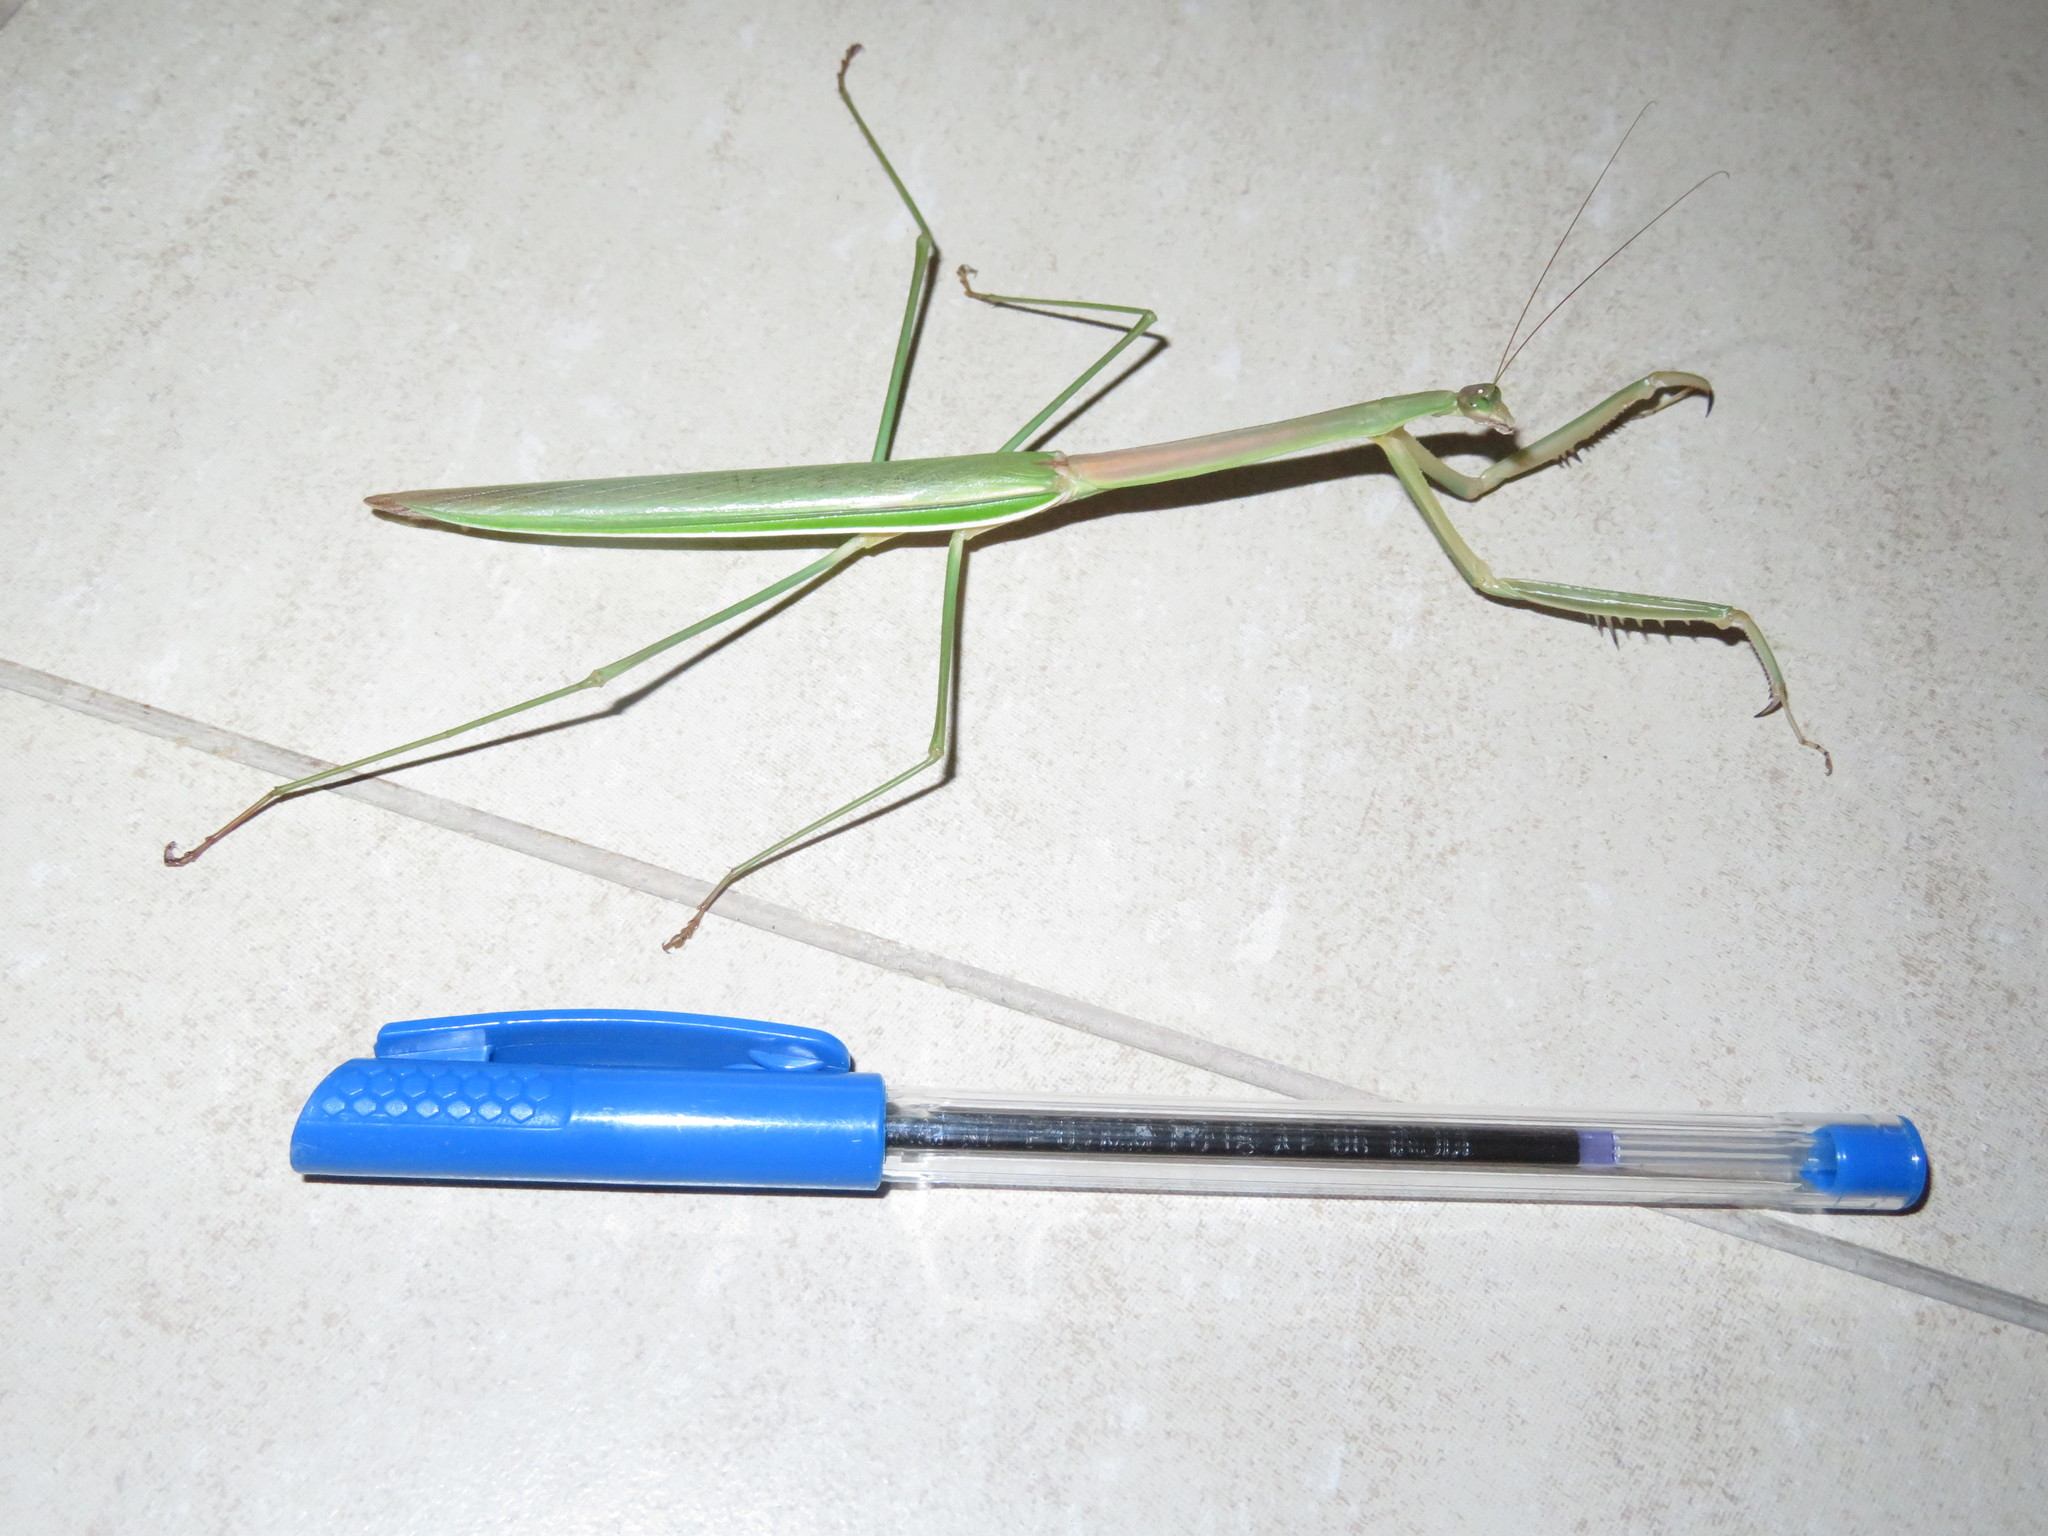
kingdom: Animalia
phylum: Arthropoda
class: Insecta
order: Mantodea
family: Mantidae
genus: Tenodera
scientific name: Tenodera superstitiosa
